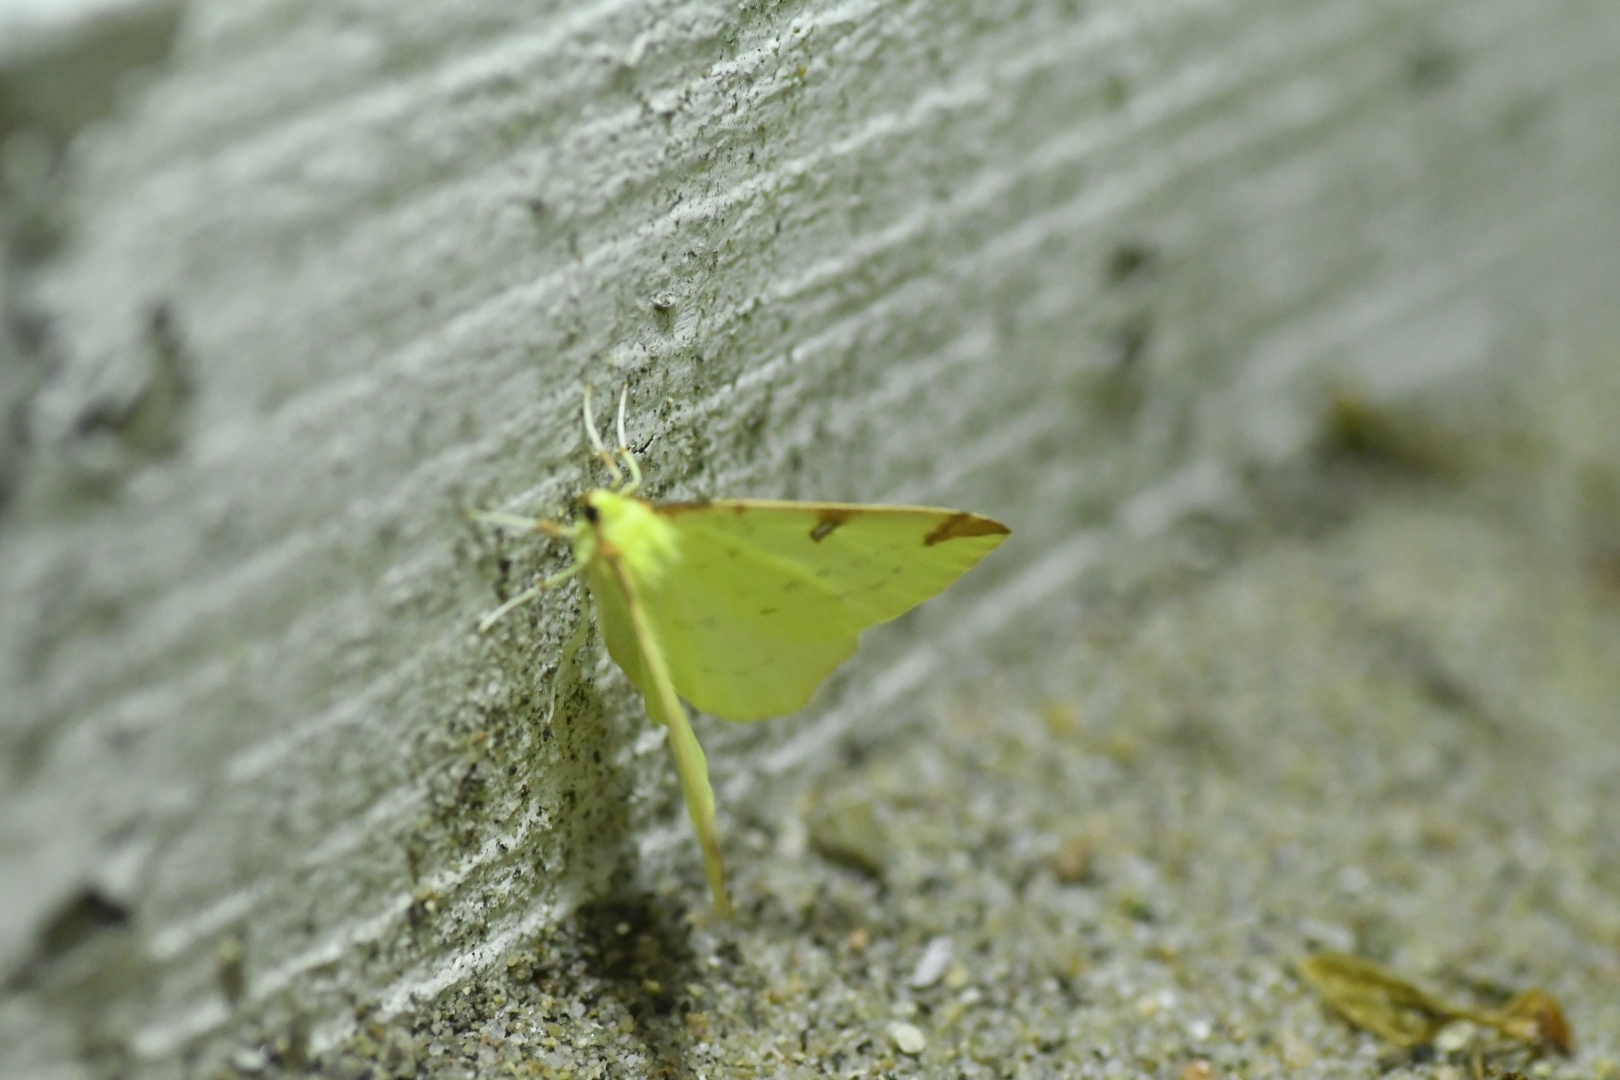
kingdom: Animalia
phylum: Arthropoda
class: Insecta
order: Lepidoptera
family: Geometridae
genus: Opisthograptis
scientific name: Opisthograptis luteolata
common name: Brimstone moth
